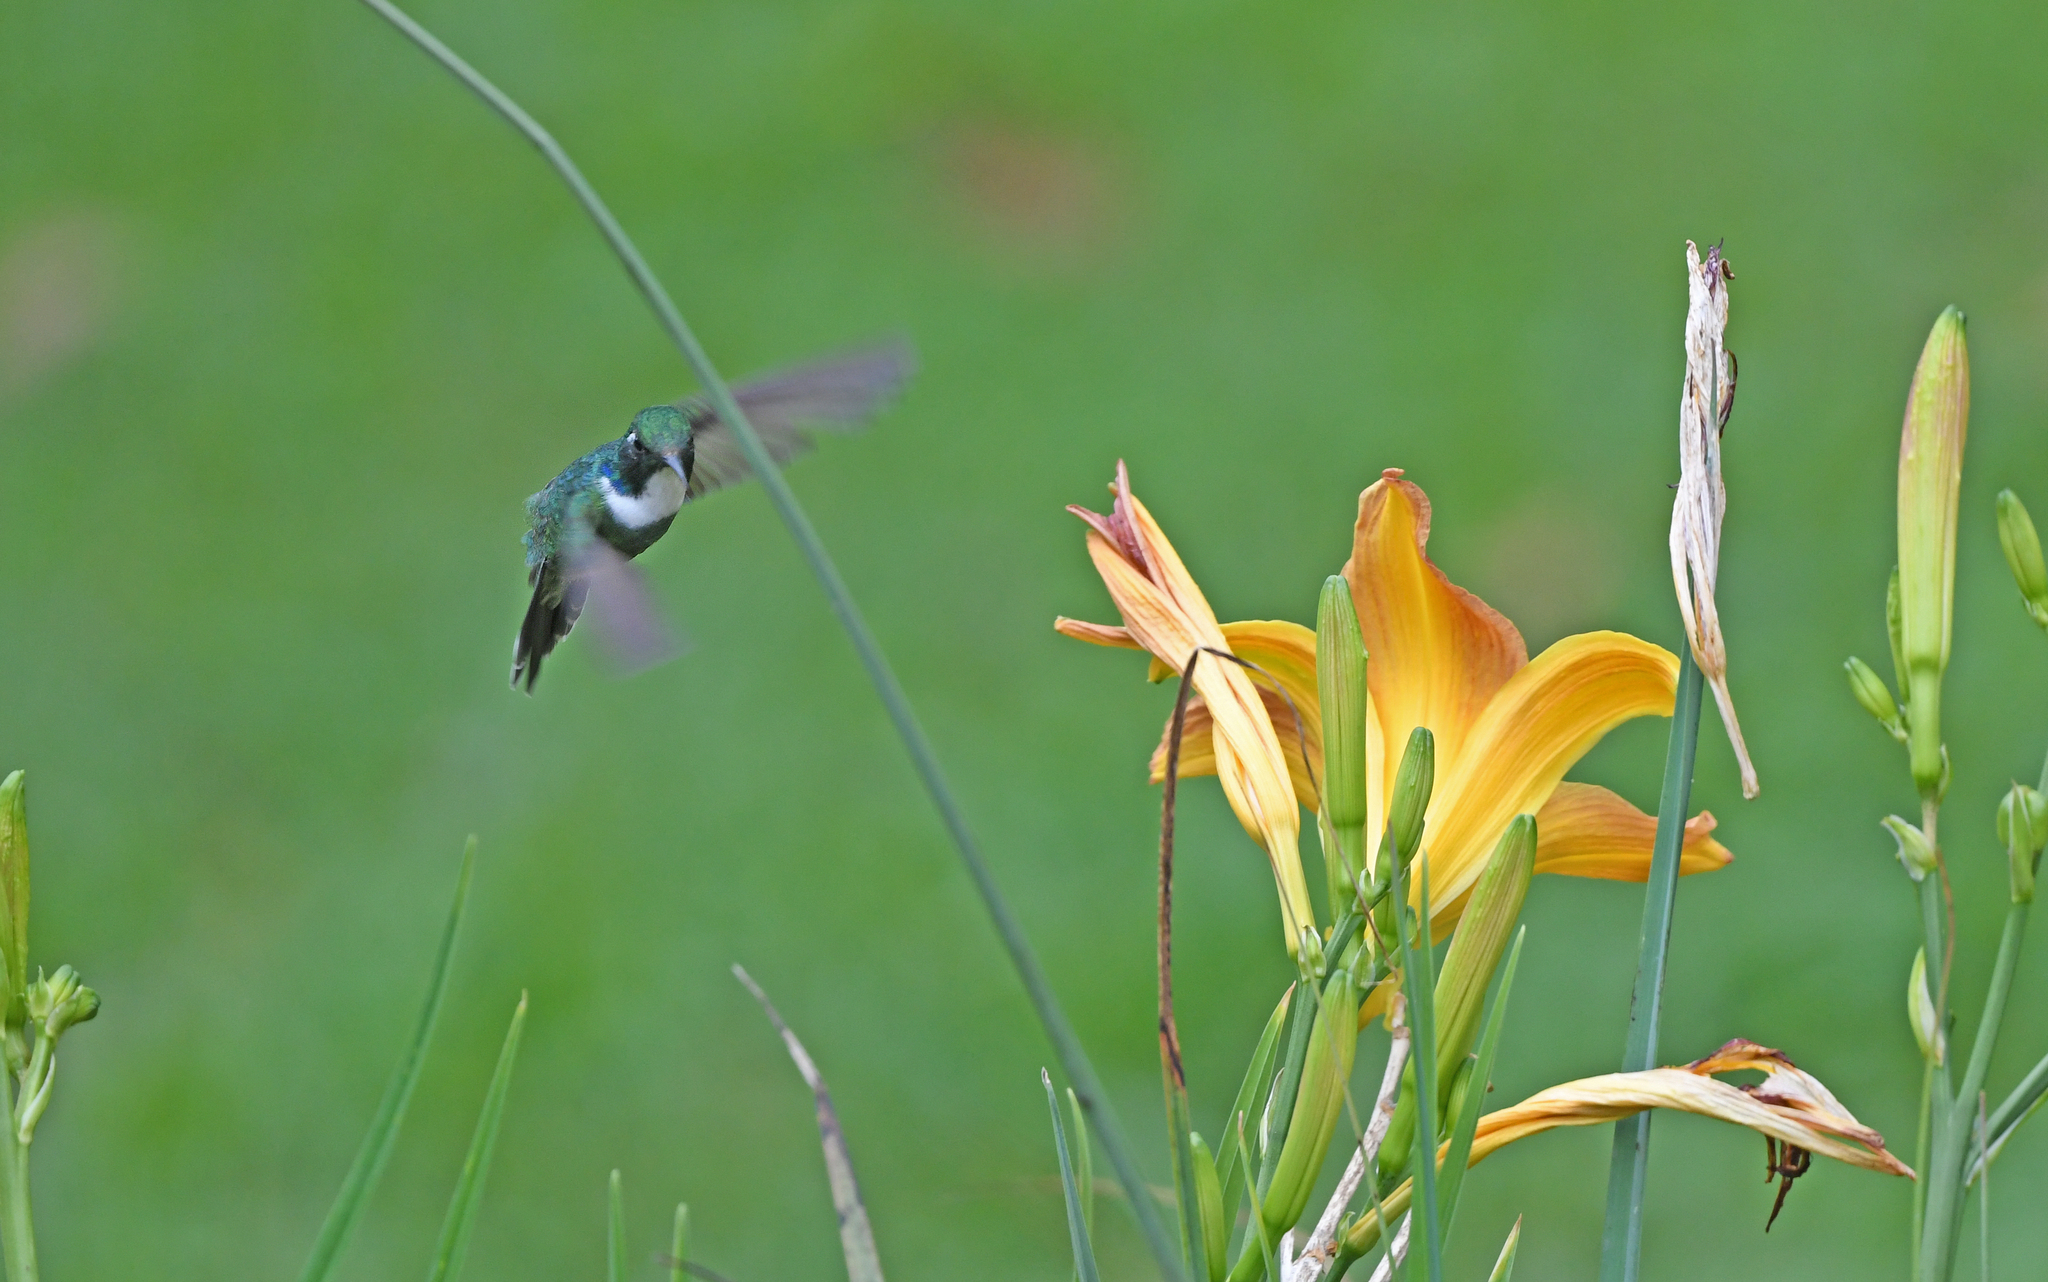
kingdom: Animalia
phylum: Chordata
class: Aves
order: Apodiformes
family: Trochilidae
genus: Schistes
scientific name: Schistes albogularis
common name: White-throated daggerbill
